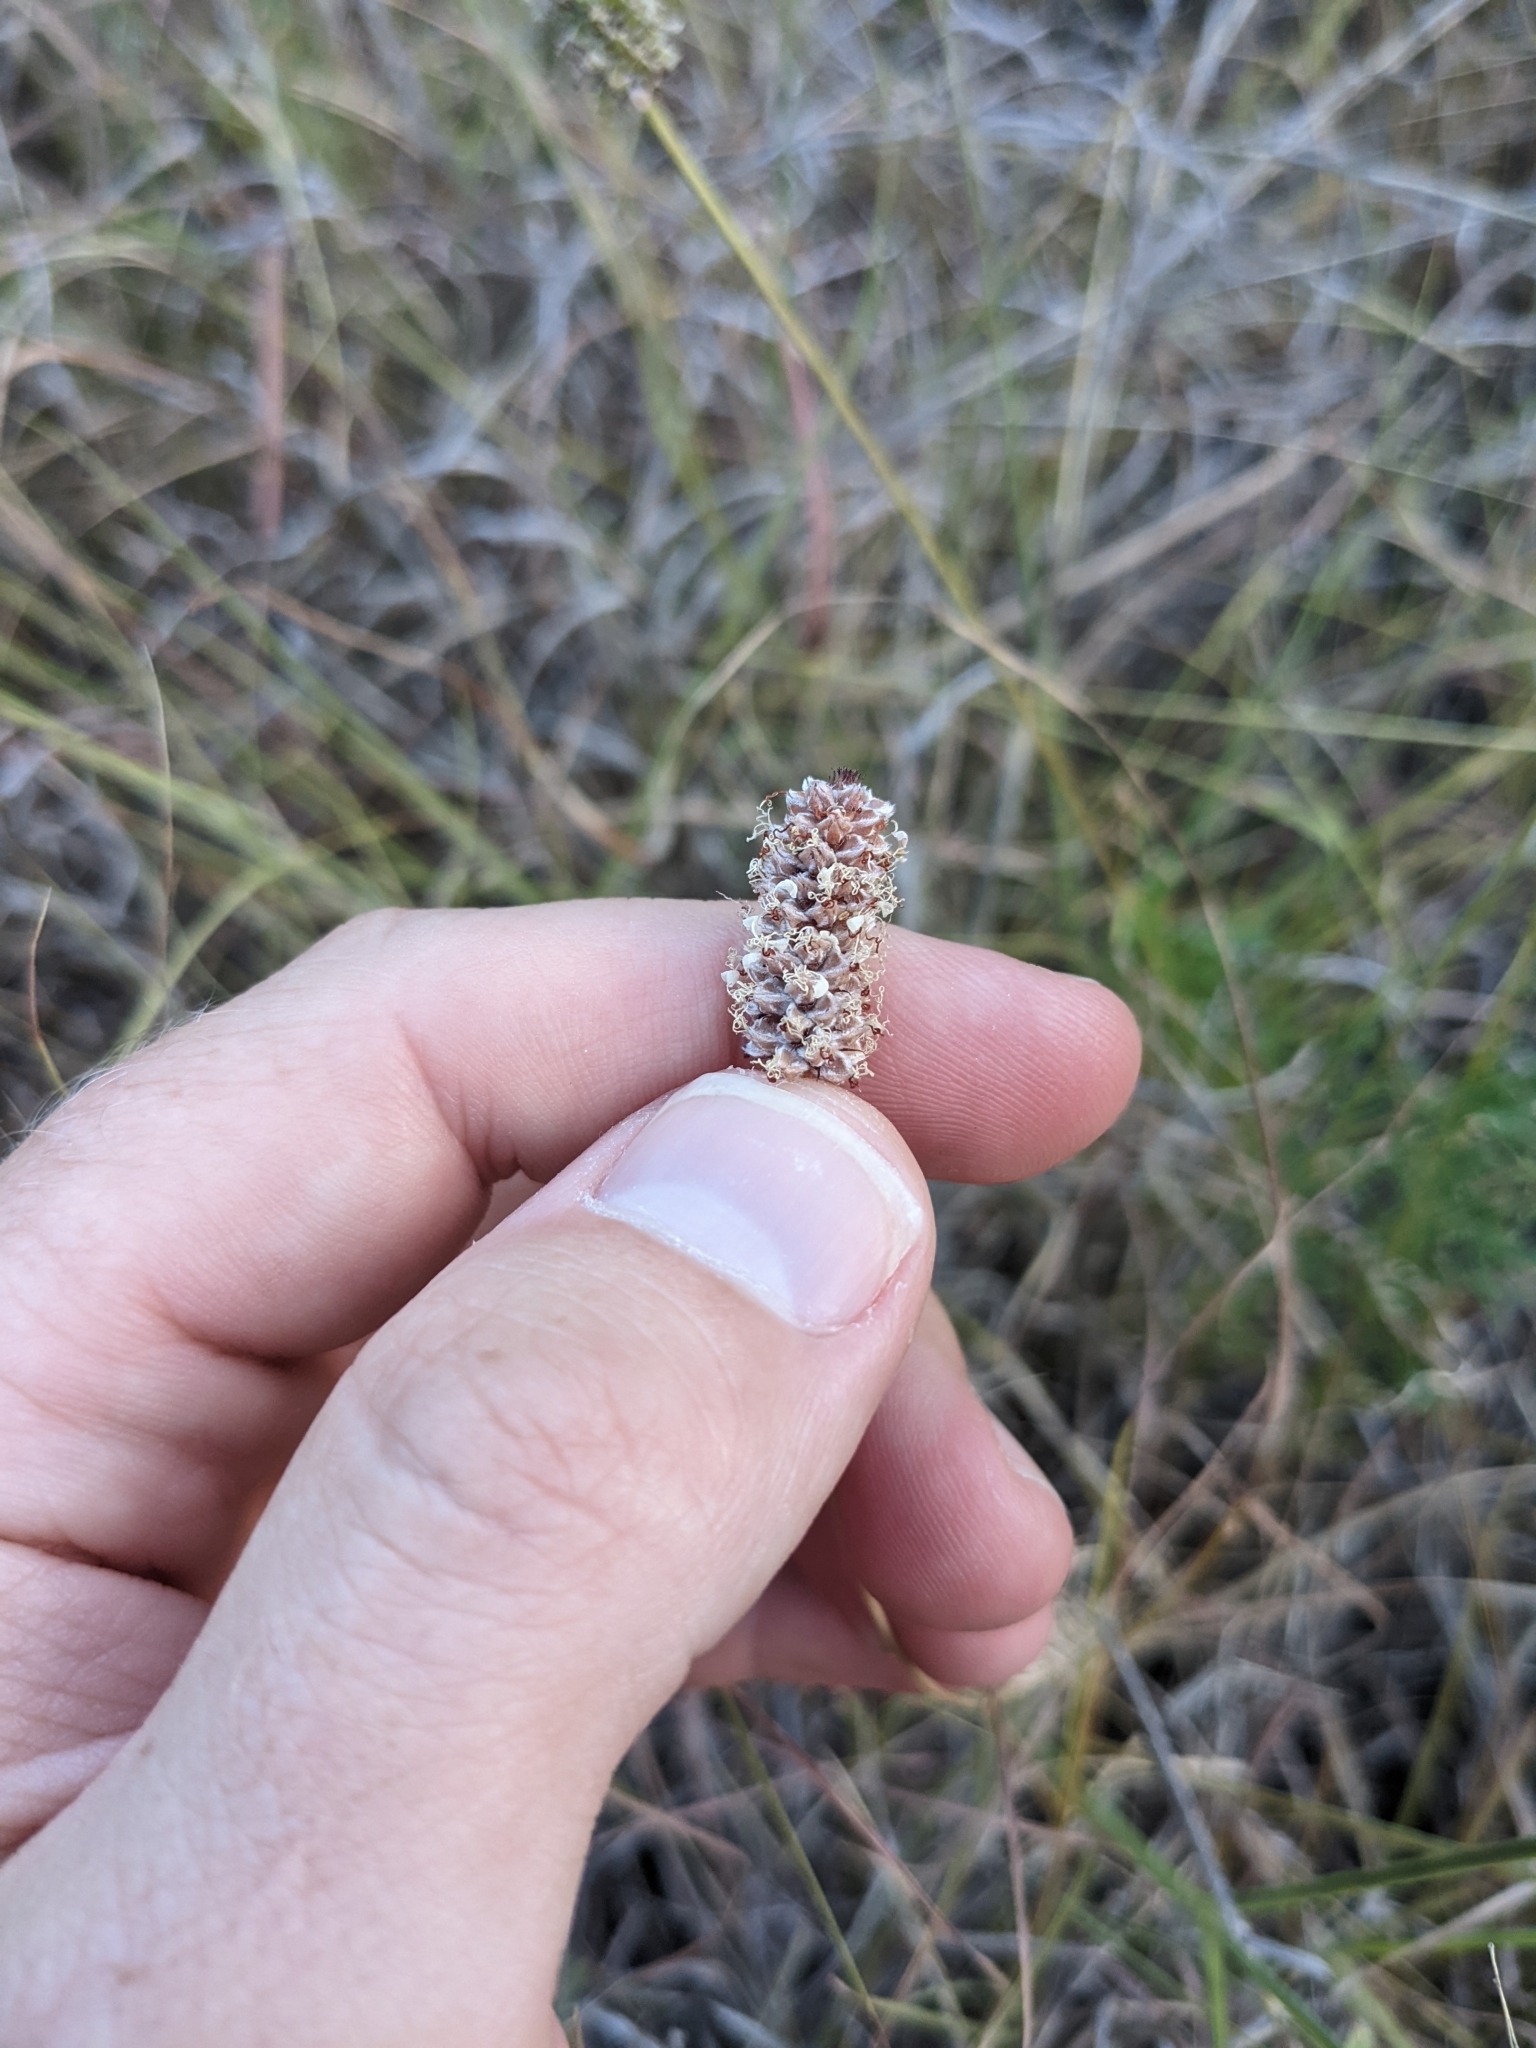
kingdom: Plantae
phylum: Tracheophyta
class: Magnoliopsida
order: Fabales
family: Fabaceae
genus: Dalea
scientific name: Dalea tenuis
